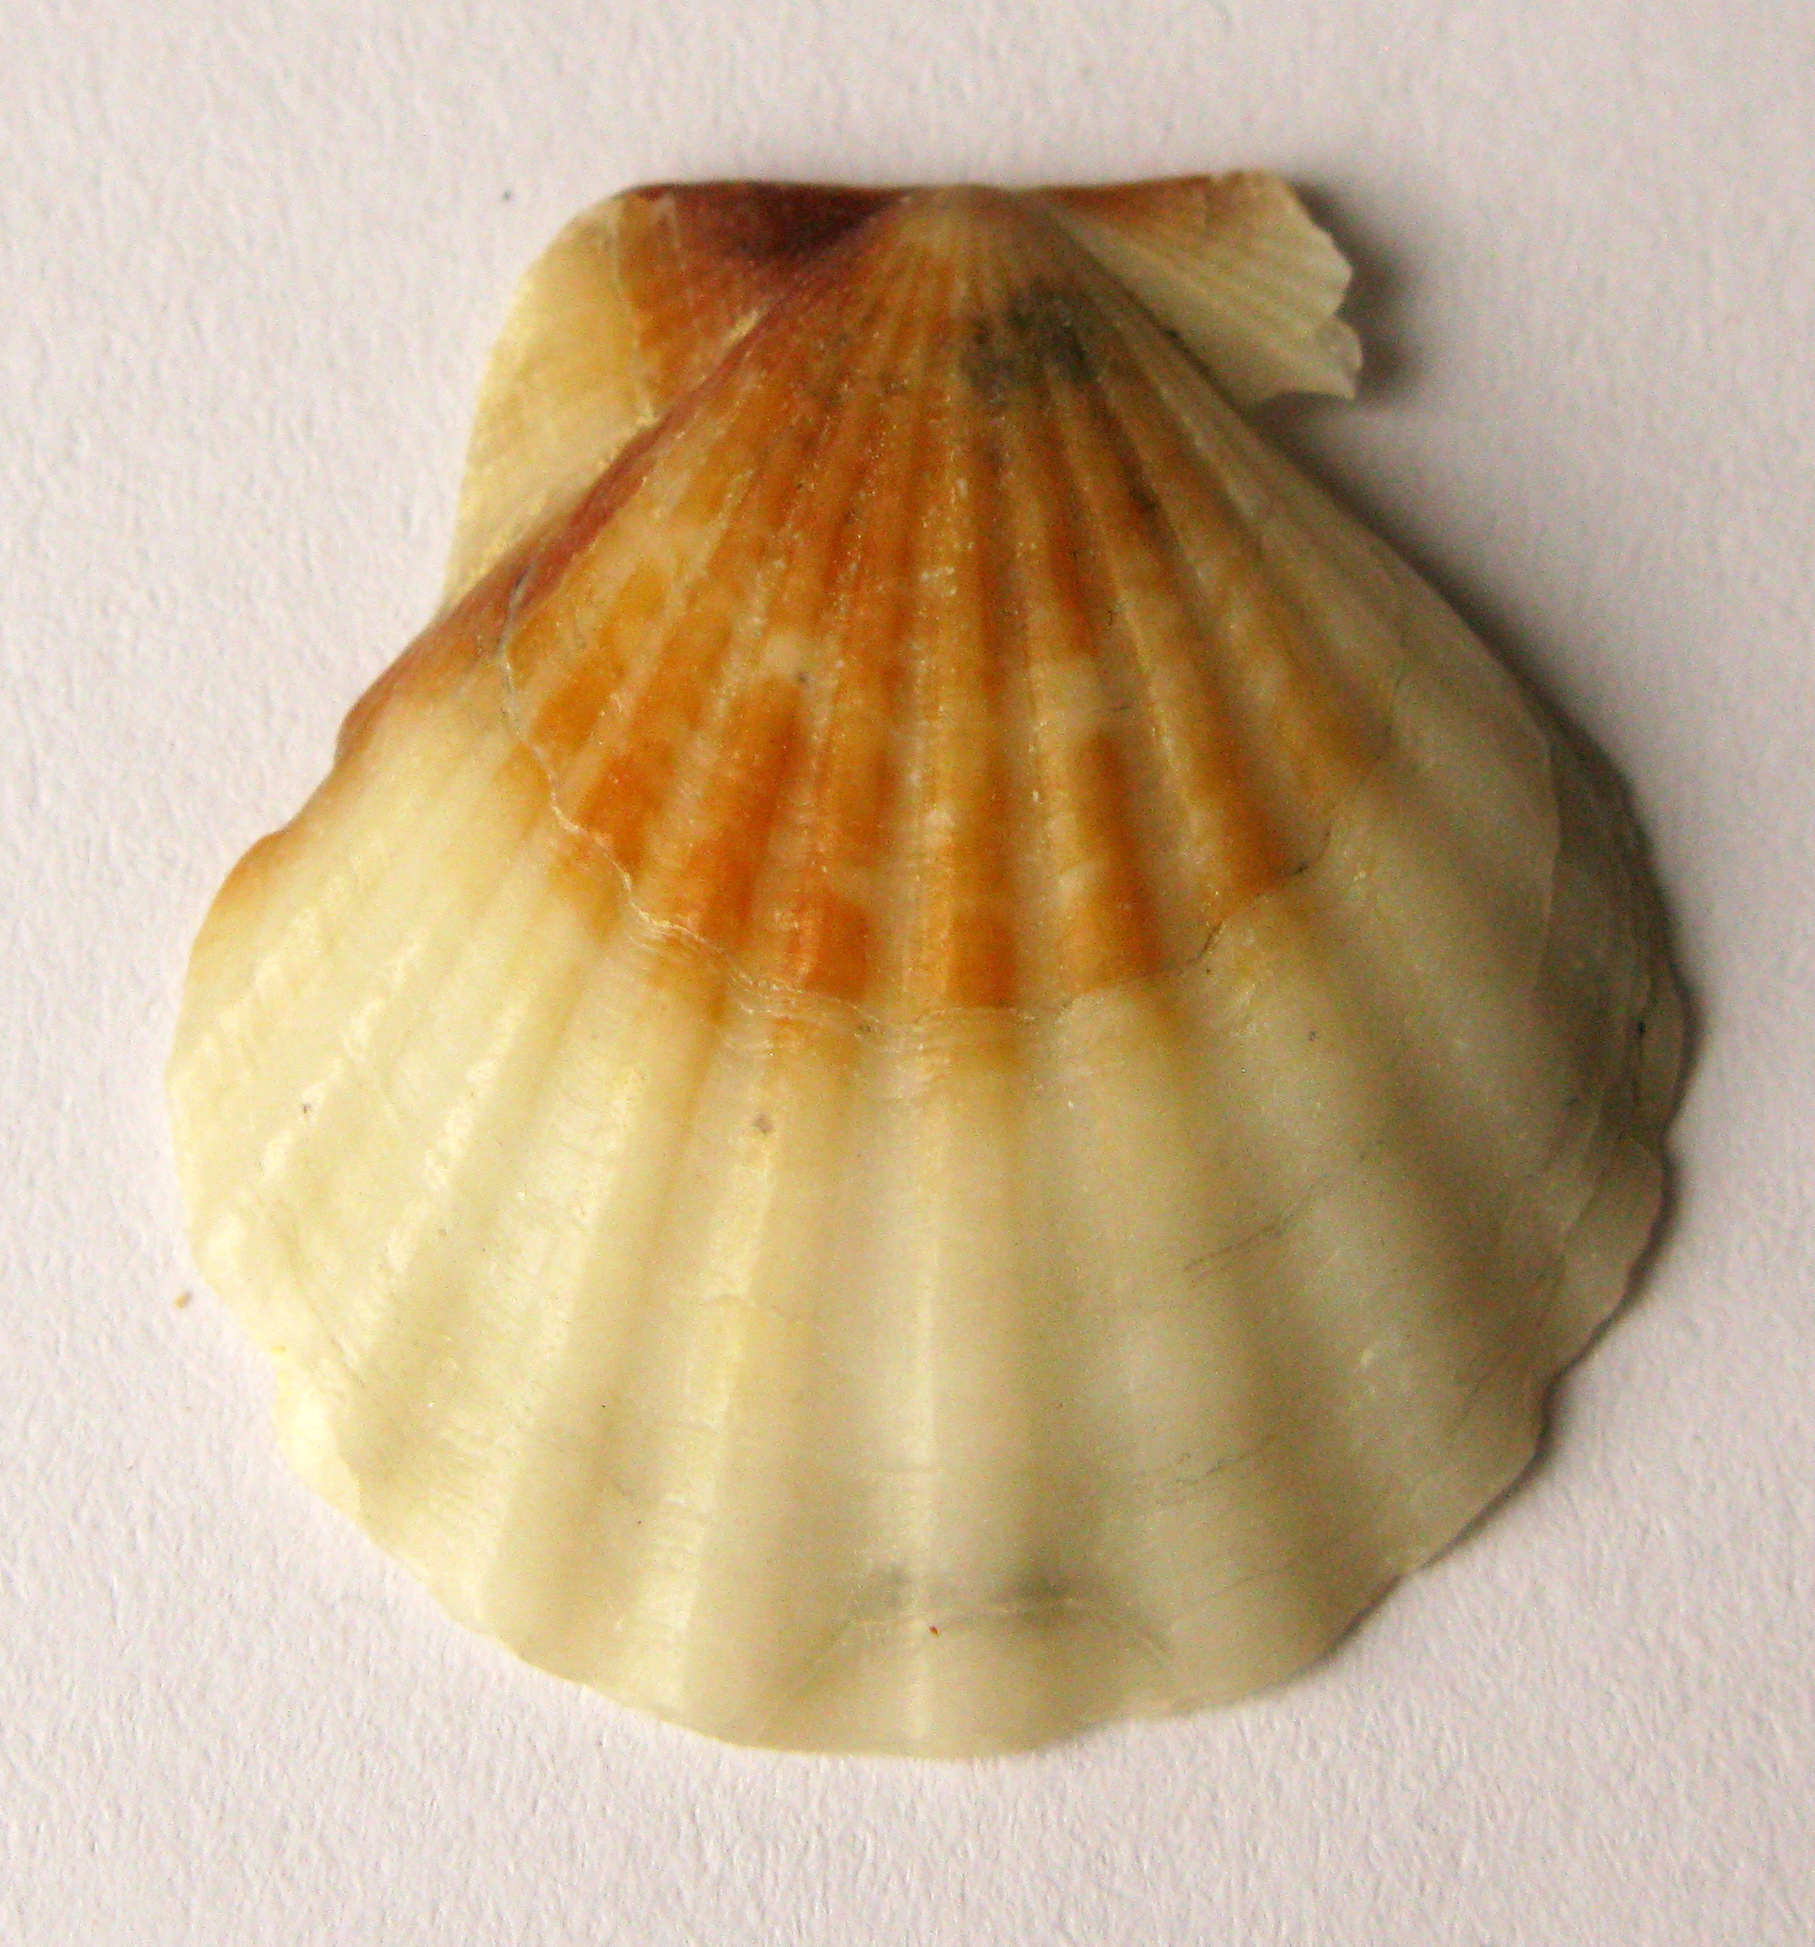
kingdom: Animalia
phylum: Mollusca
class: Bivalvia
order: Pectinida
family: Pectinidae
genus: Flexopecten
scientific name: Flexopecten glaber
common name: Smooth scallop
